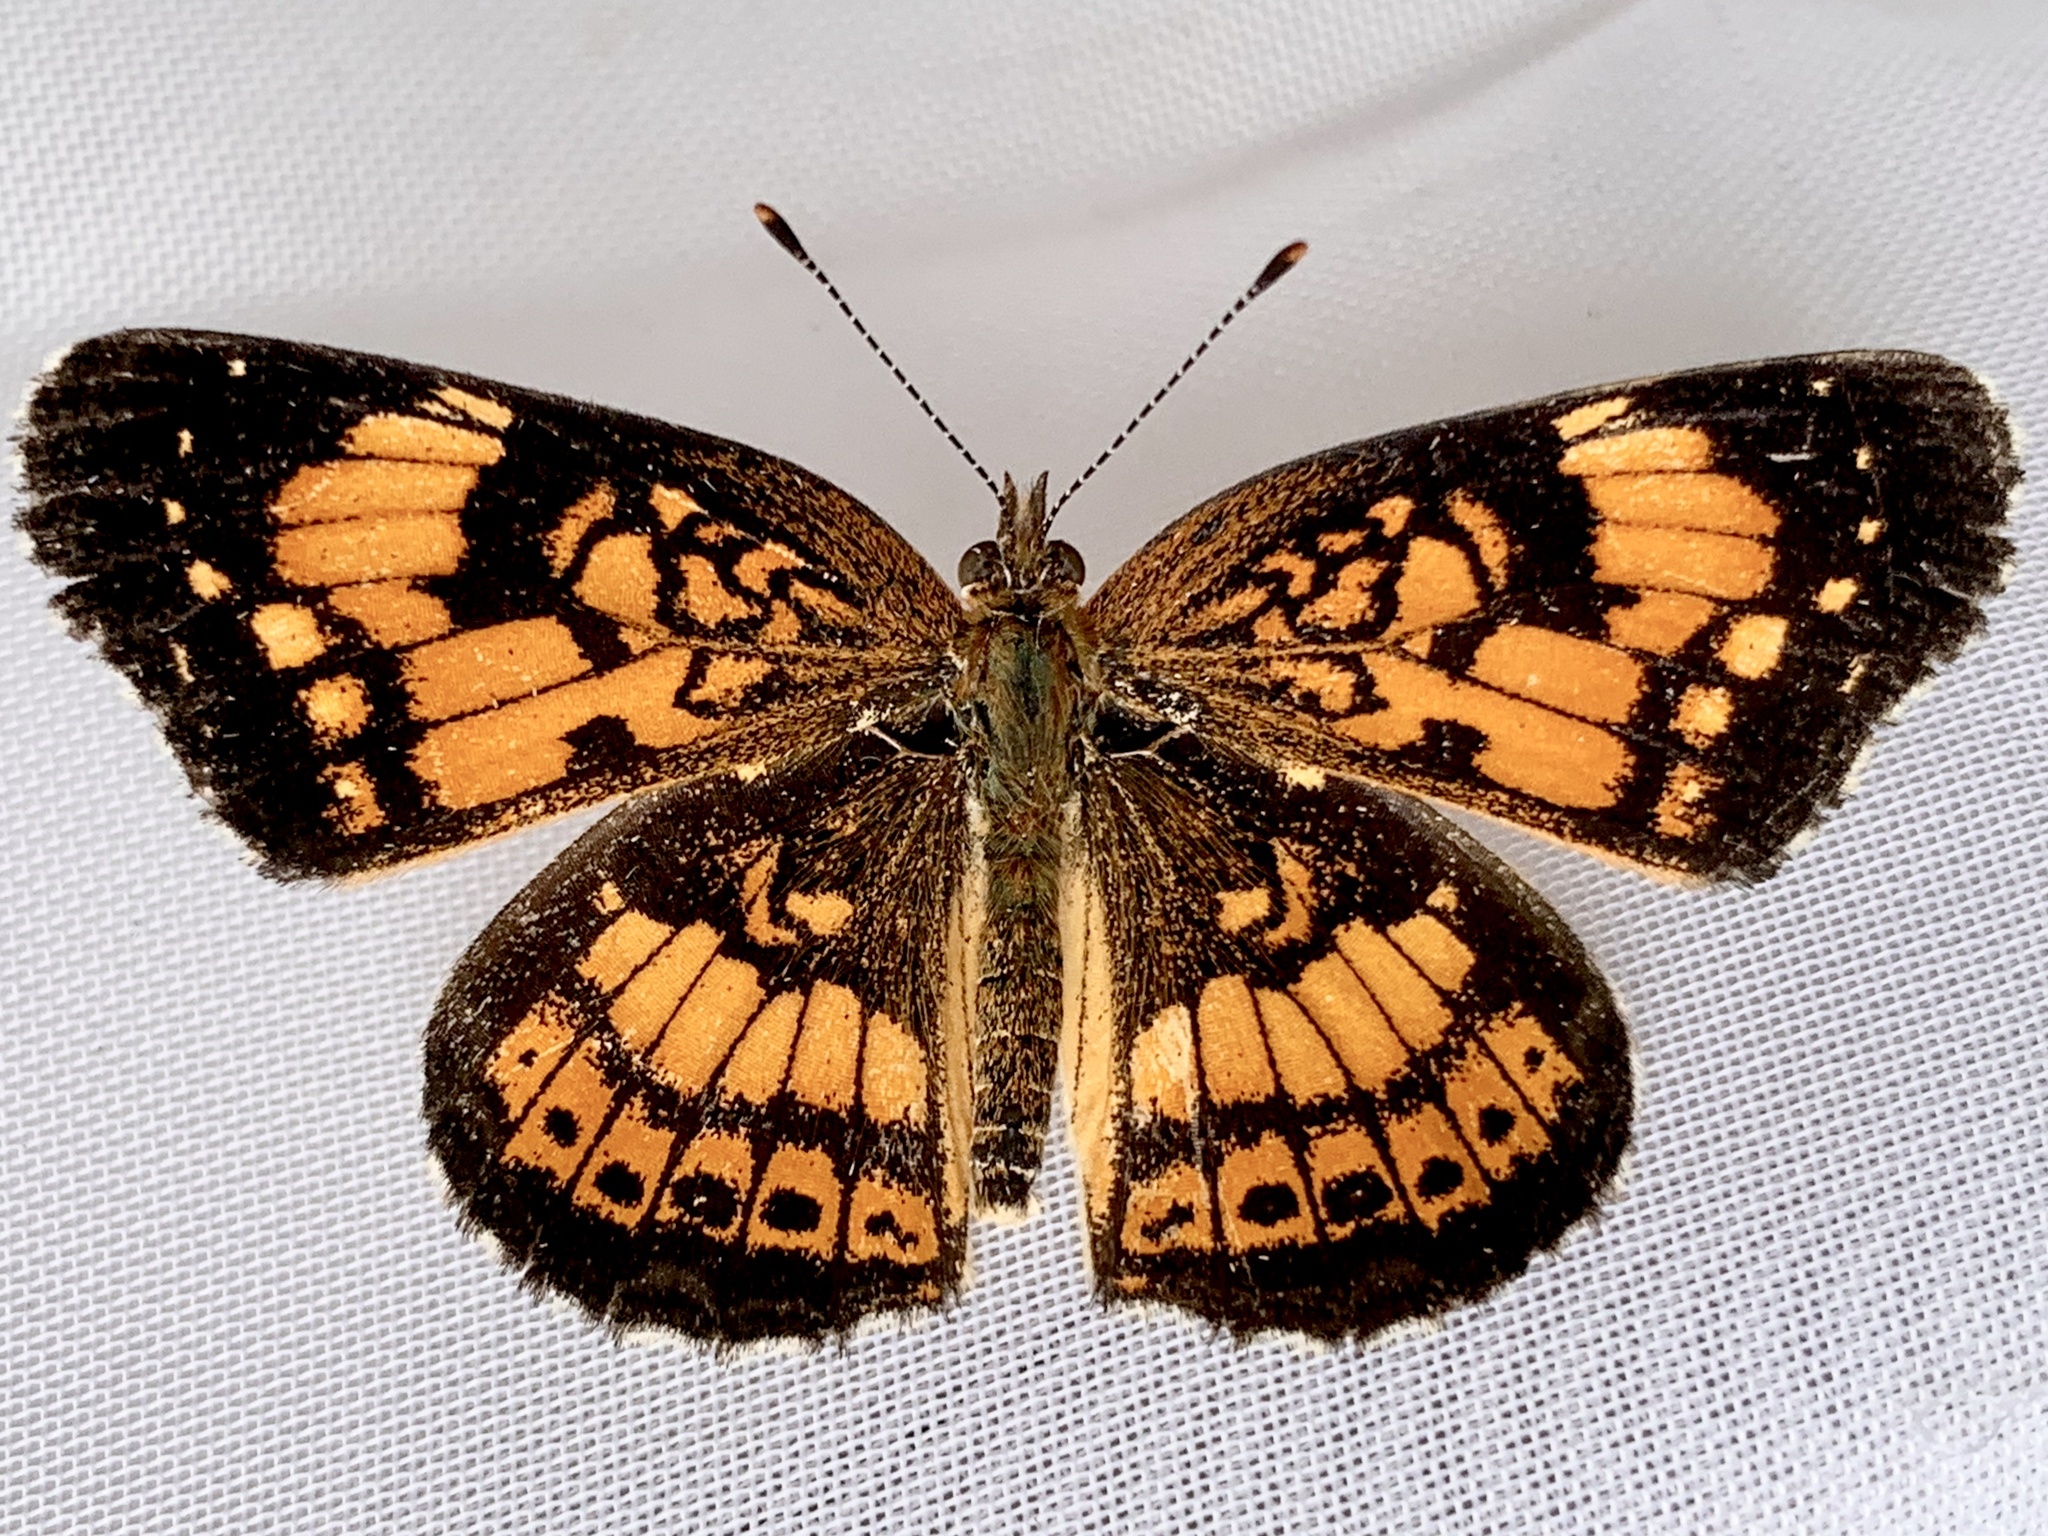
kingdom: Animalia
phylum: Arthropoda
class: Insecta
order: Lepidoptera
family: Nymphalidae
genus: Chlosyne
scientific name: Chlosyne nycteis
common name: Silvery checkerspot
